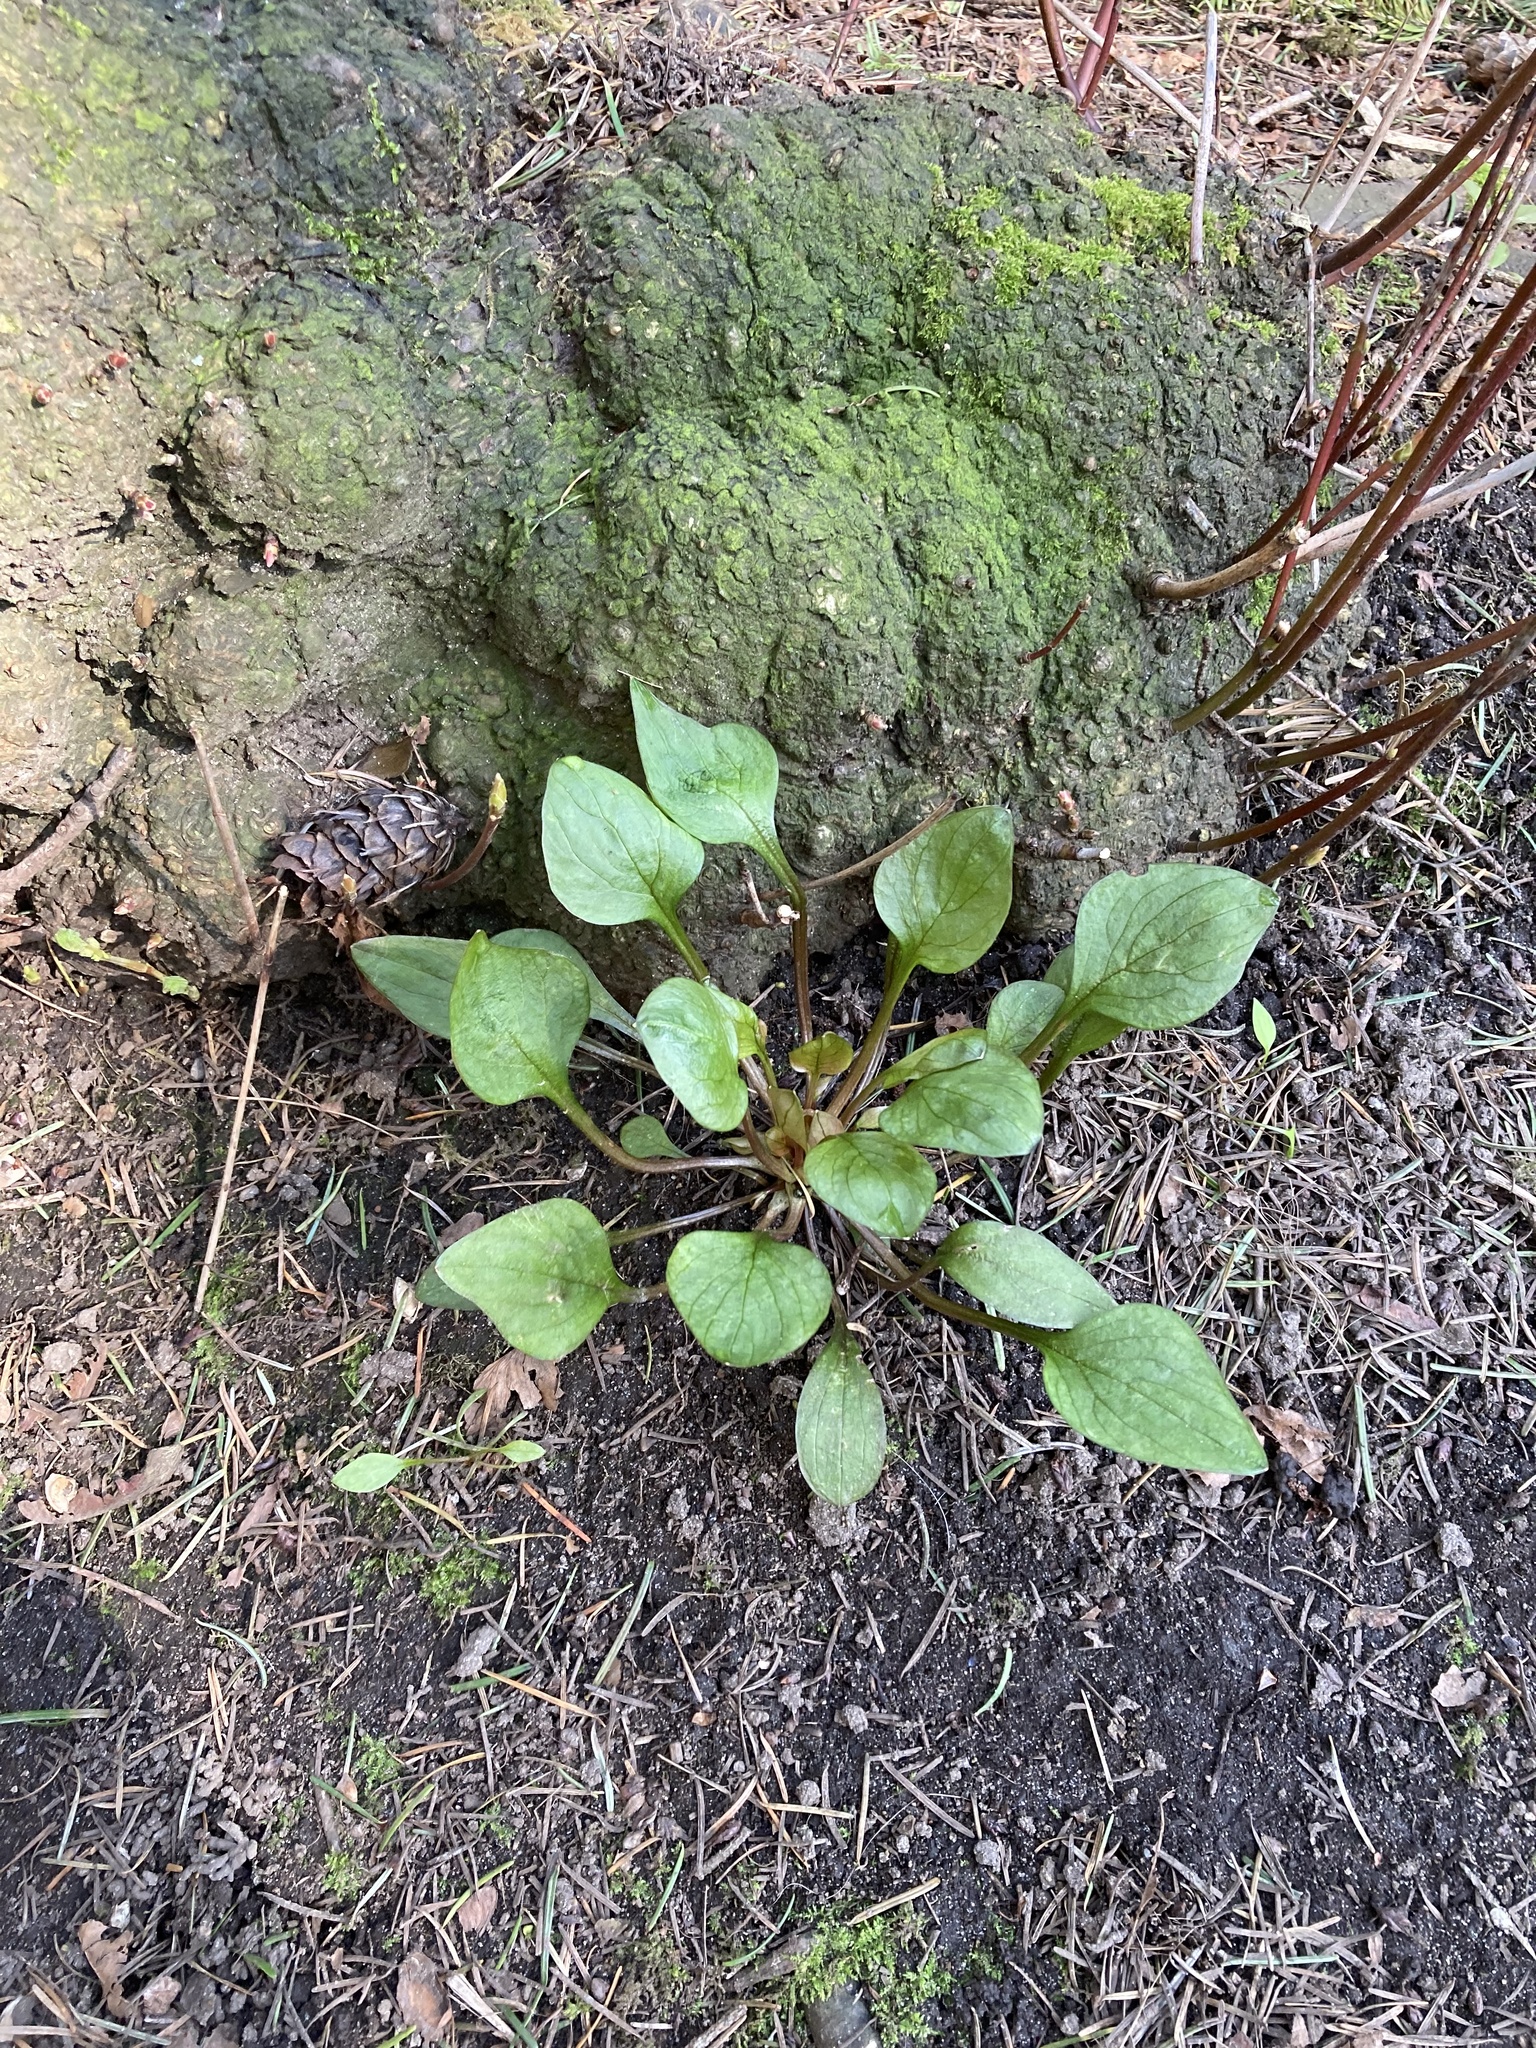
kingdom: Plantae
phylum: Tracheophyta
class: Magnoliopsida
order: Caryophyllales
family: Montiaceae
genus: Claytonia
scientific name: Claytonia sibirica
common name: Pink purslane
